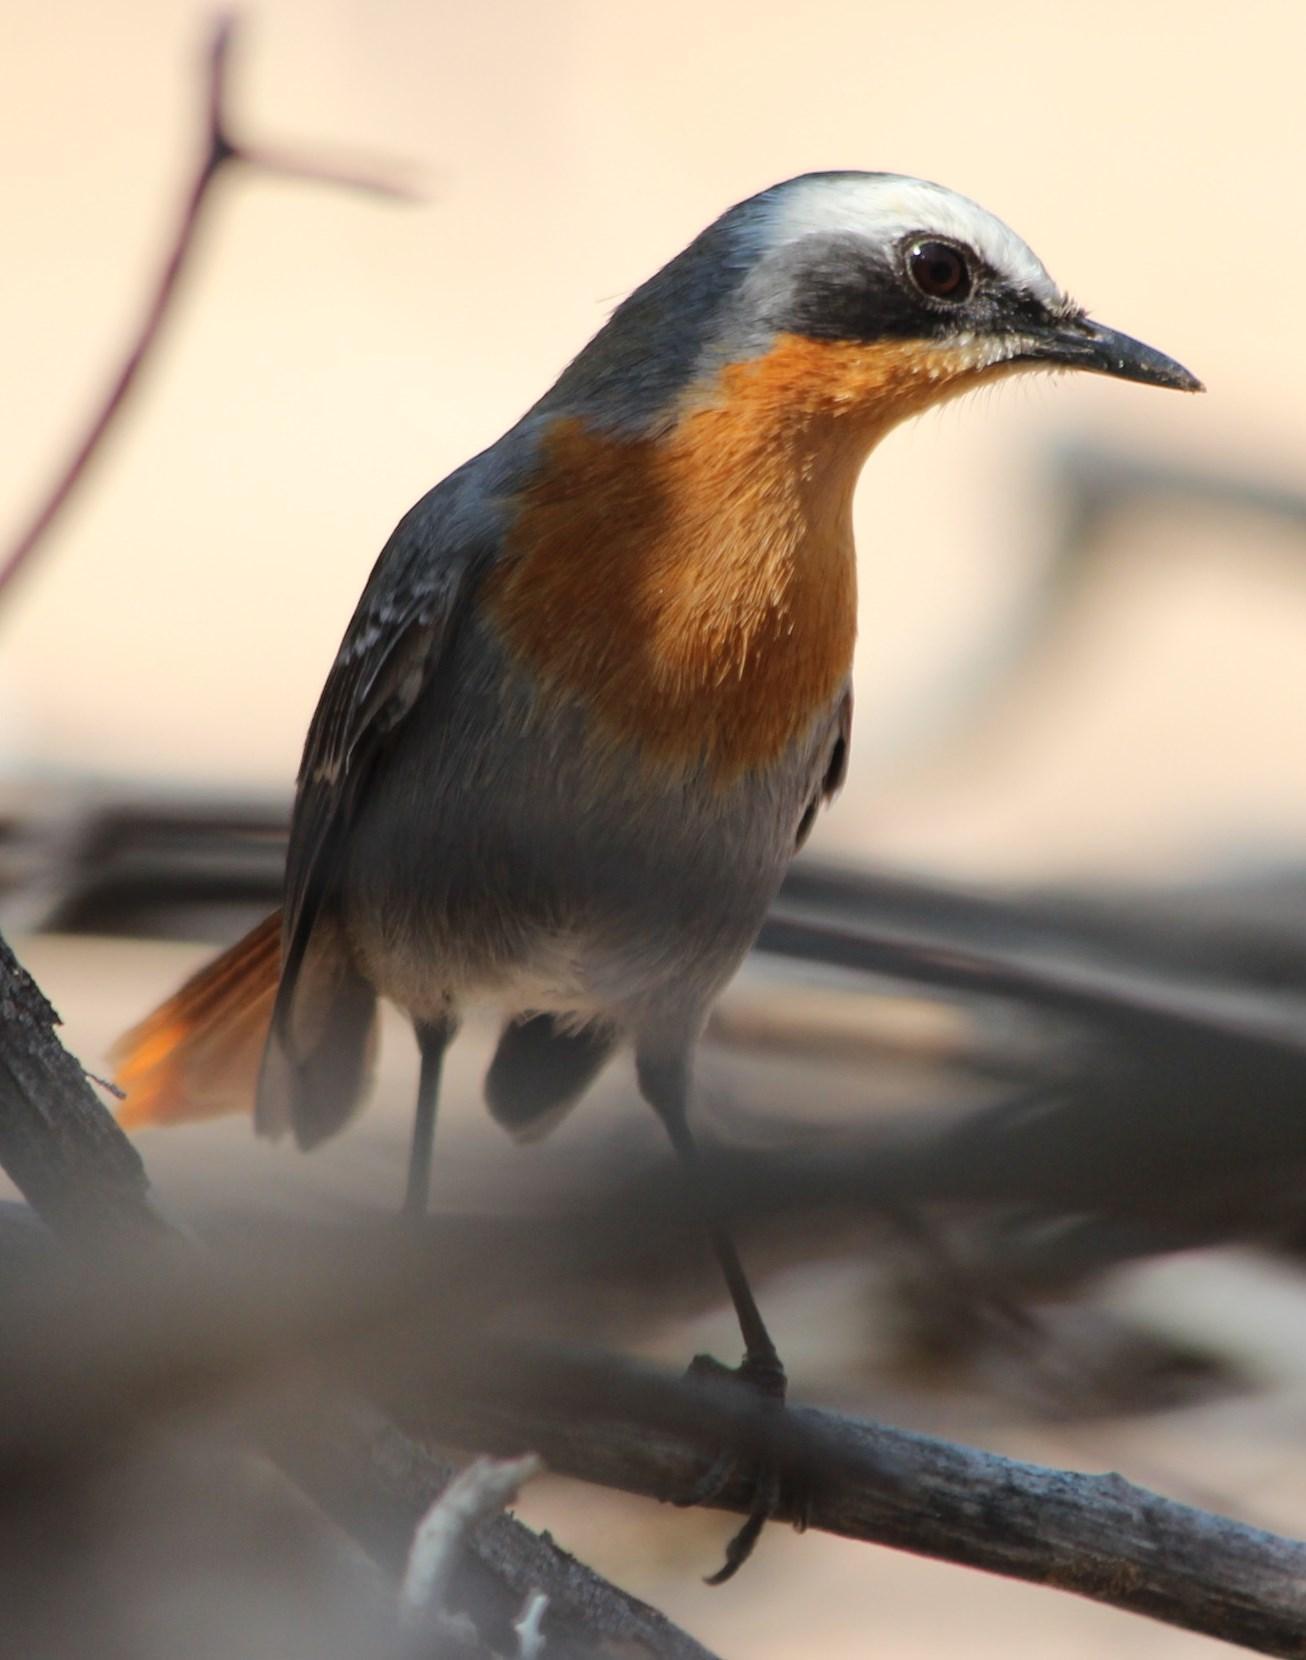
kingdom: Animalia
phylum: Chordata
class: Aves
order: Passeriformes
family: Muscicapidae
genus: Cossypha
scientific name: Cossypha caffra
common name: Cape robin-chat
